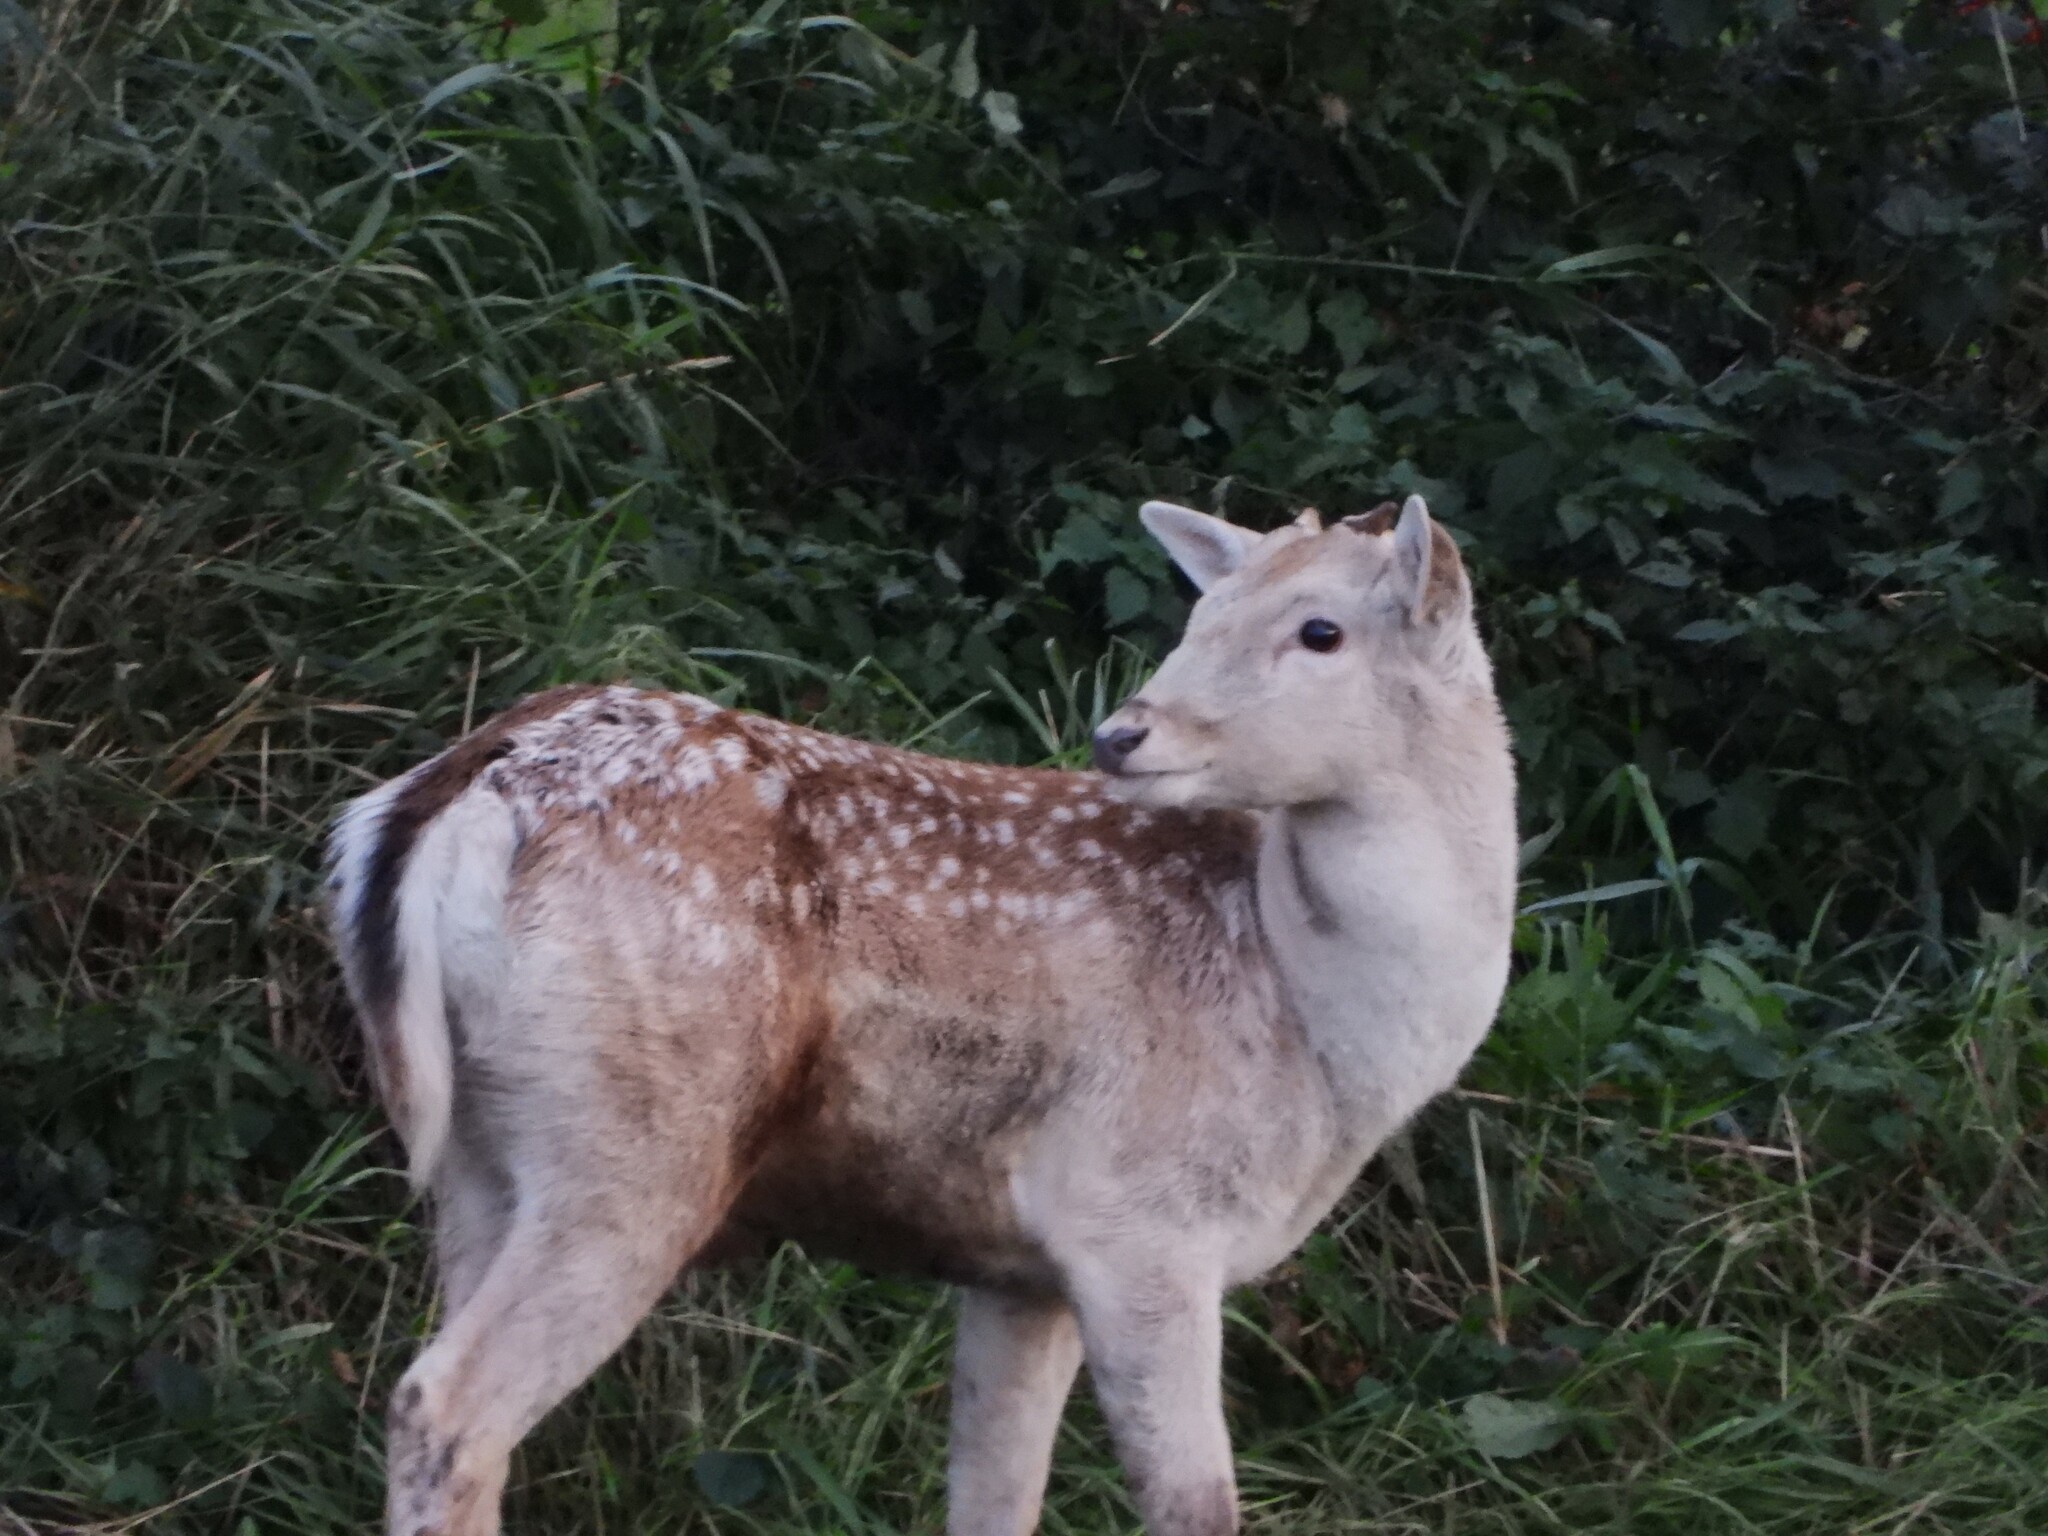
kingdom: Animalia
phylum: Chordata
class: Mammalia
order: Artiodactyla
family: Cervidae
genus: Dama
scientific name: Dama dama
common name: Fallow deer
